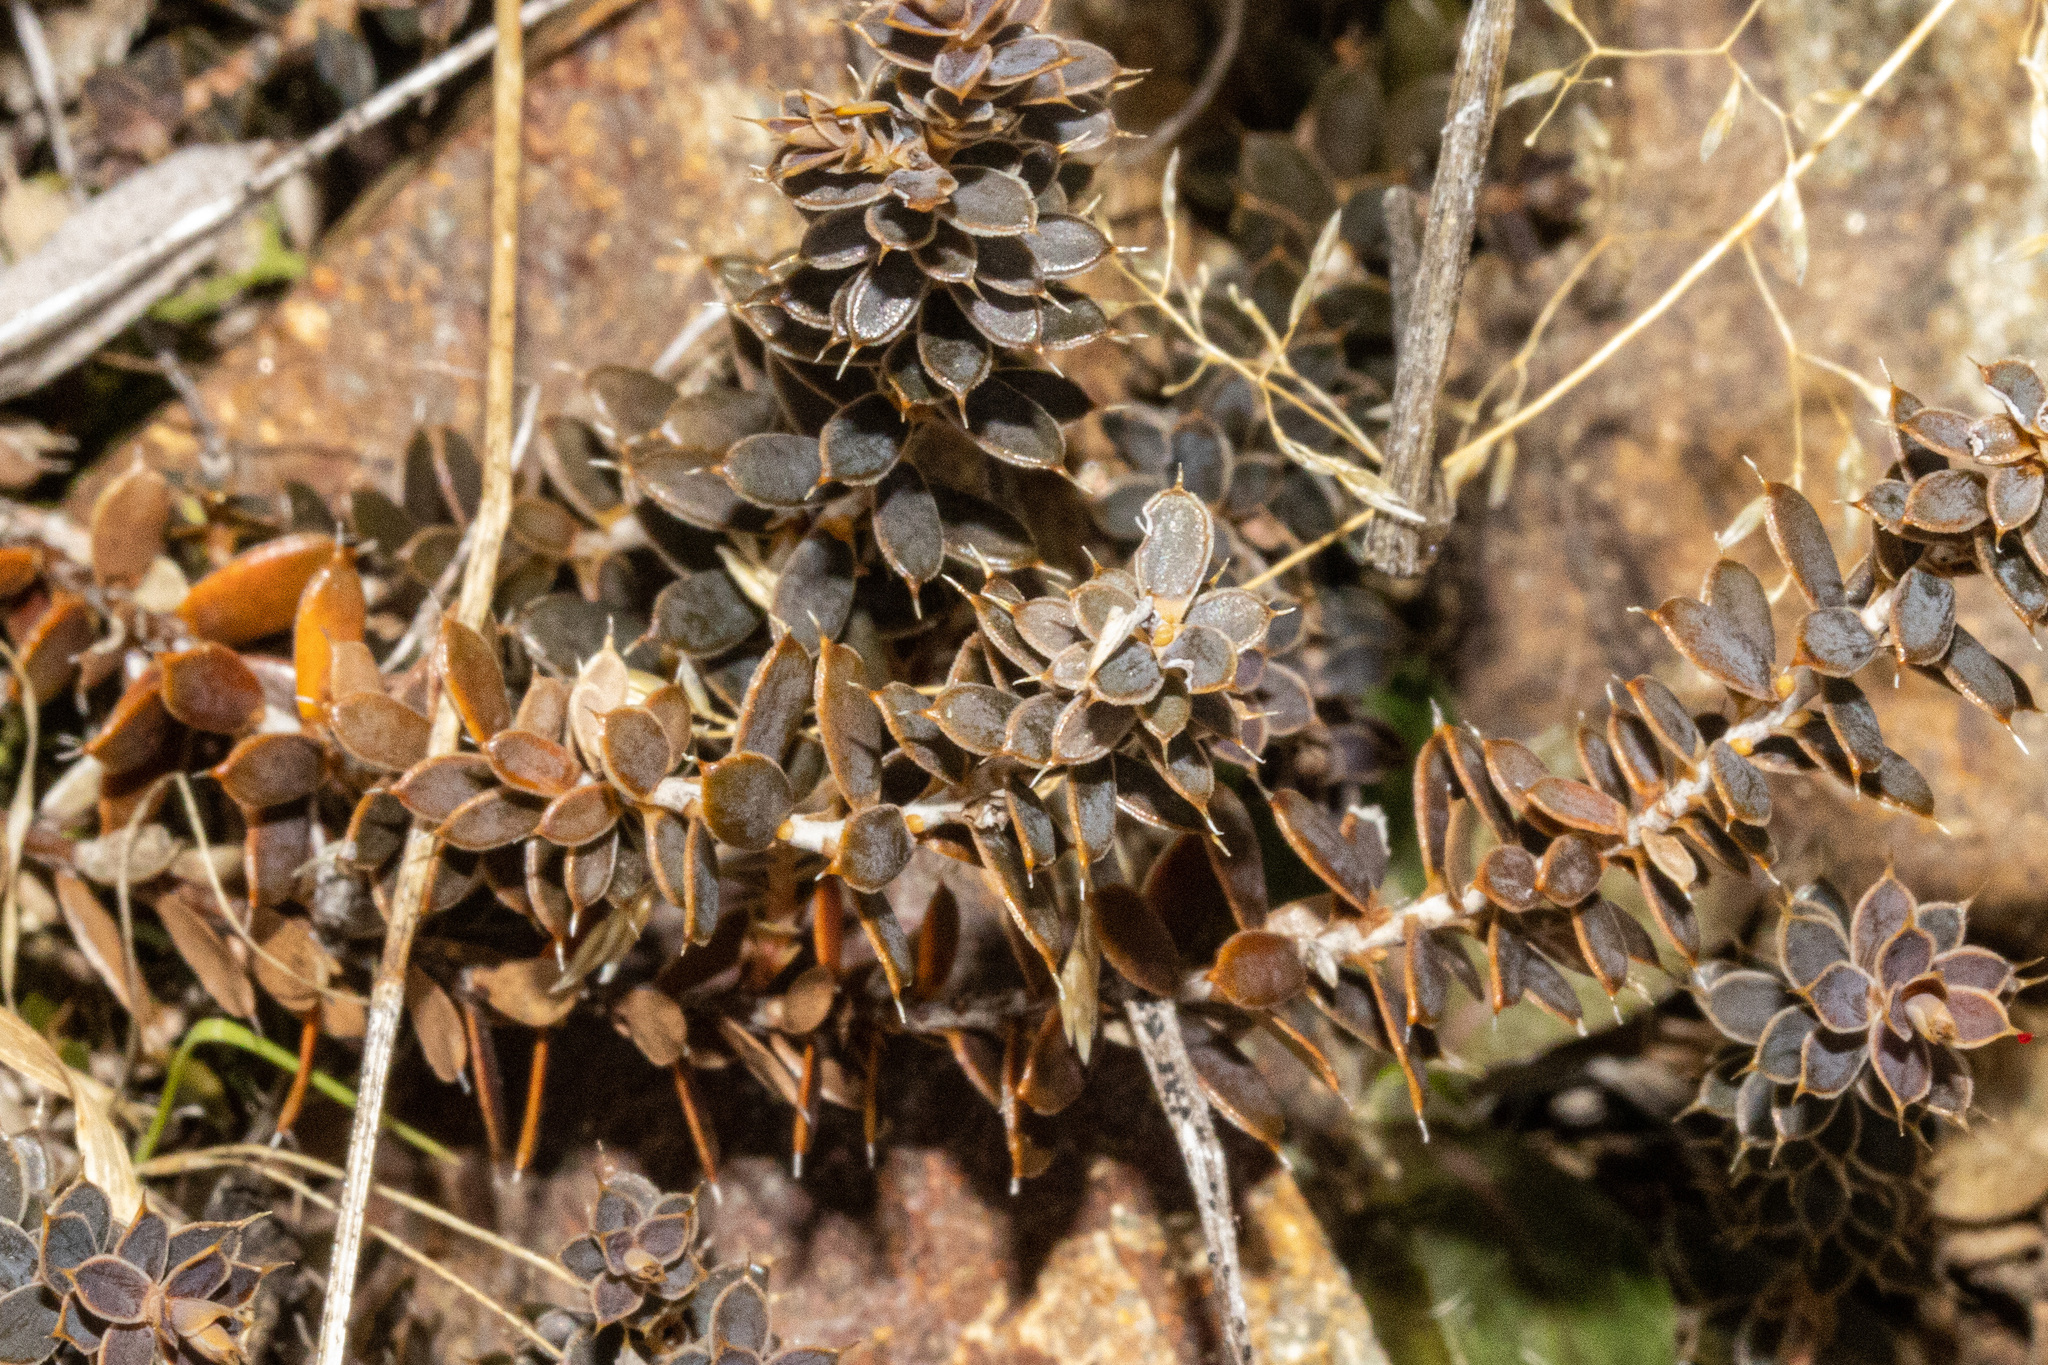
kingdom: Plantae
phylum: Tracheophyta
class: Magnoliopsida
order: Ericales
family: Ericaceae
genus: Styphelia
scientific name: Styphelia nesophila
